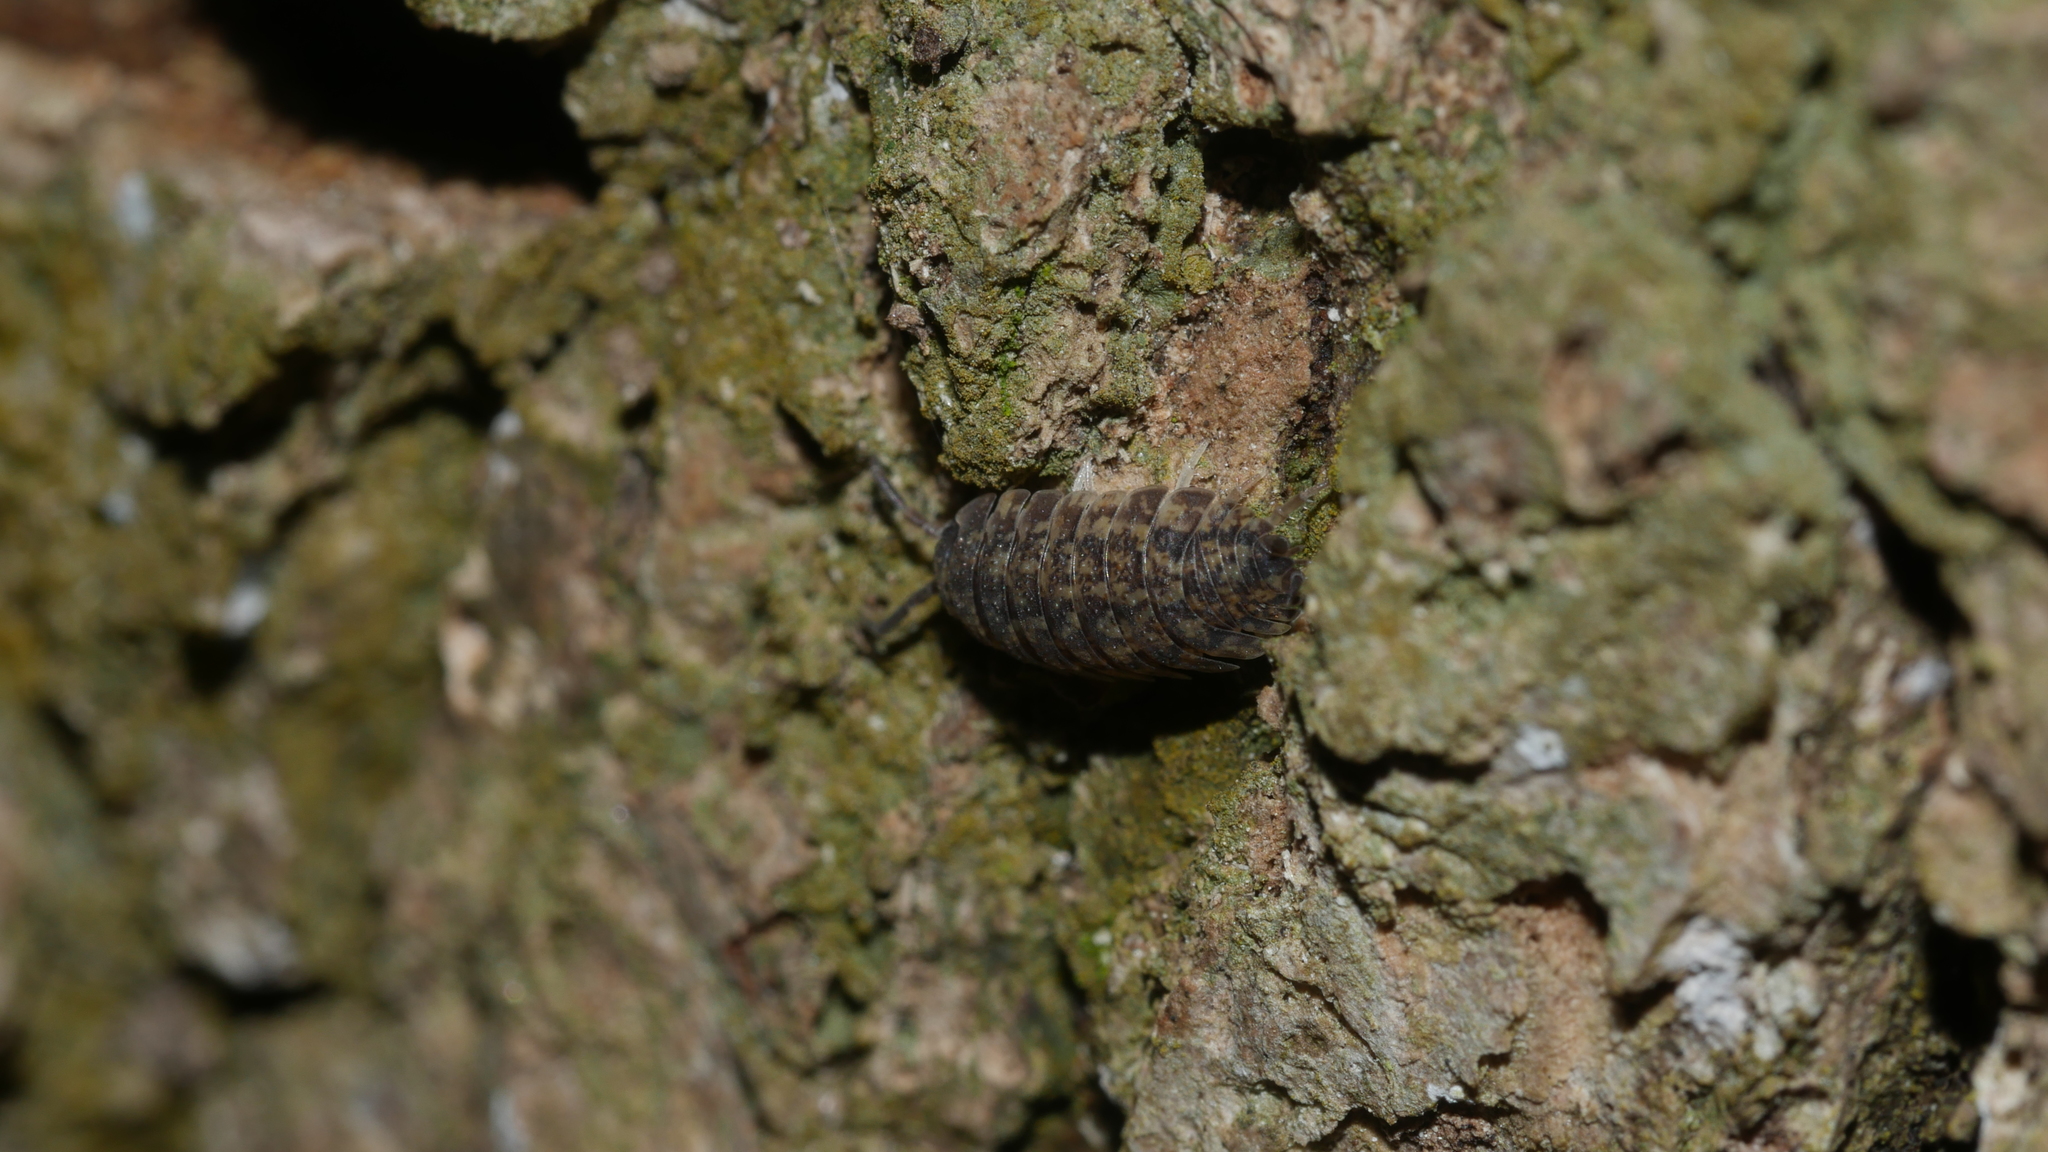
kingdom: Animalia
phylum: Arthropoda
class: Malacostraca
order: Isopoda
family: Porcellionidae
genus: Porcellio
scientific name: Porcellio scaber
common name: Common rough woodlouse
